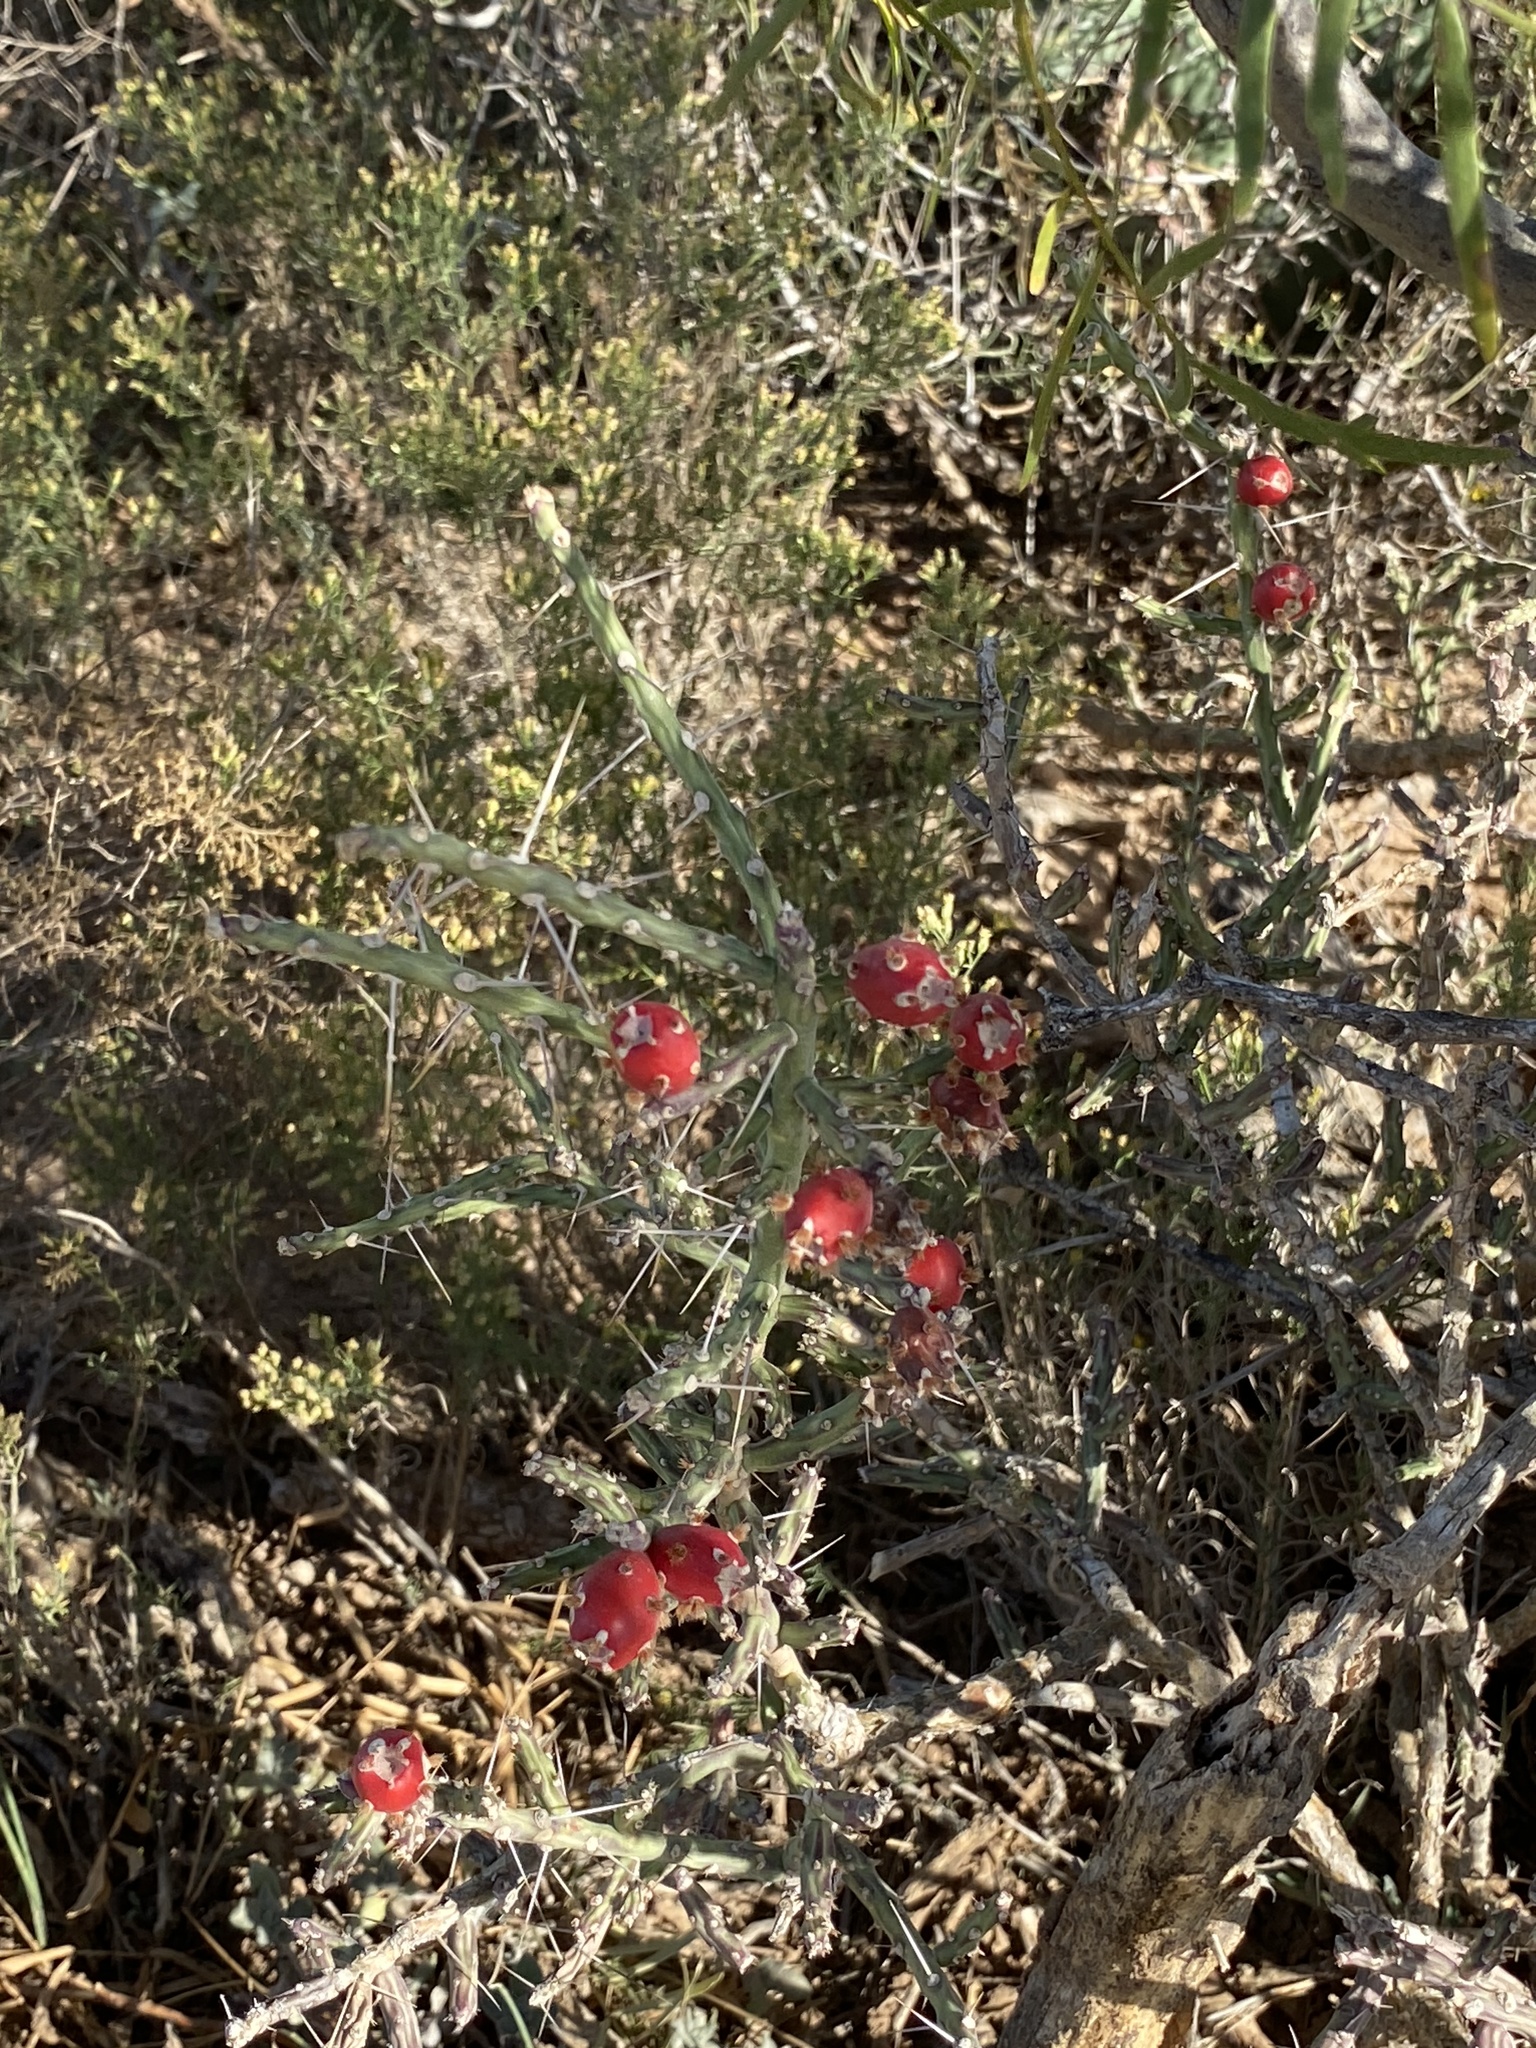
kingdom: Plantae
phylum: Tracheophyta
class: Magnoliopsida
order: Caryophyllales
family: Cactaceae
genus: Cylindropuntia
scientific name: Cylindropuntia leptocaulis
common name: Christmas cactus
